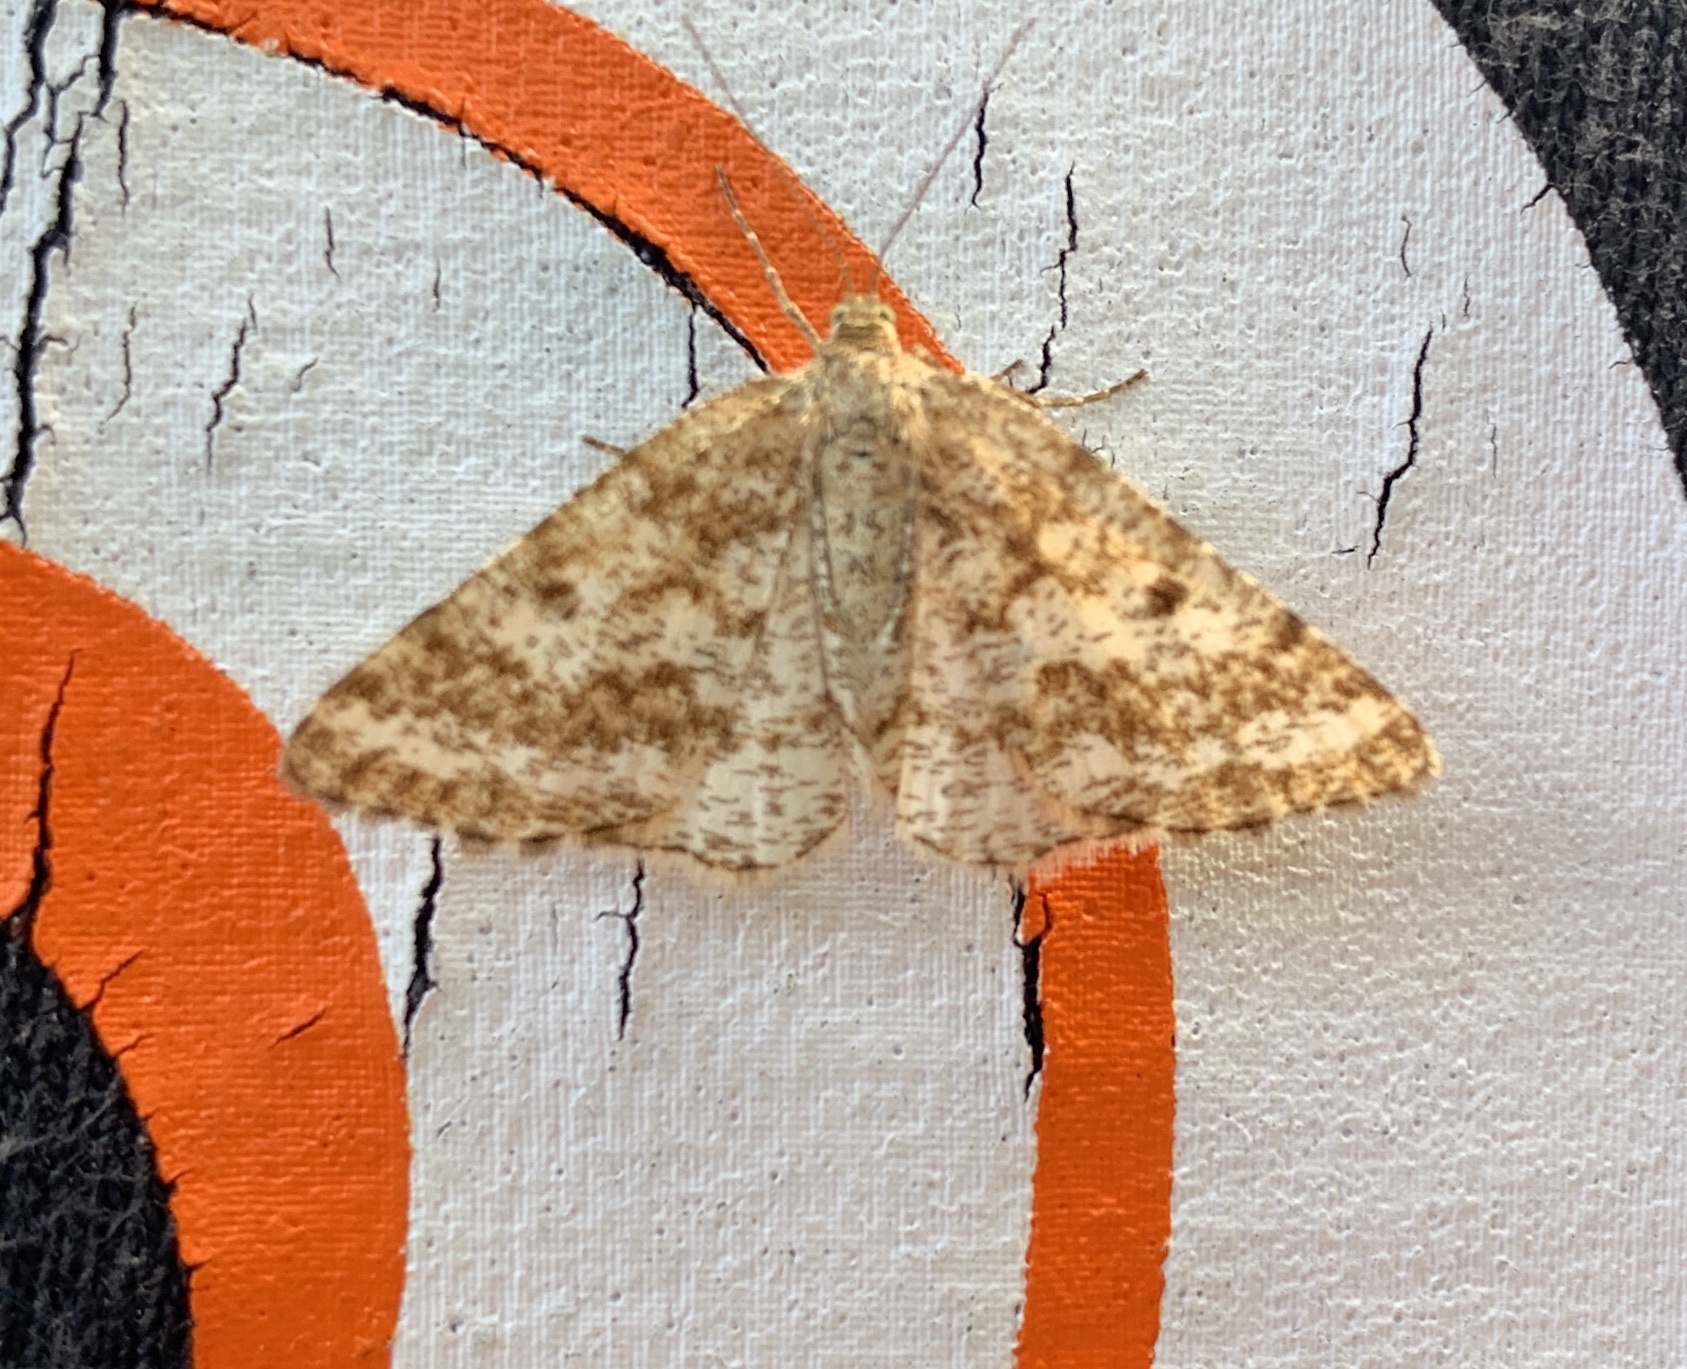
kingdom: Animalia
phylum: Arthropoda
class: Insecta
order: Lepidoptera
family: Geometridae
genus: Eufidonia
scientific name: Eufidonia notataria
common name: Powder moth
